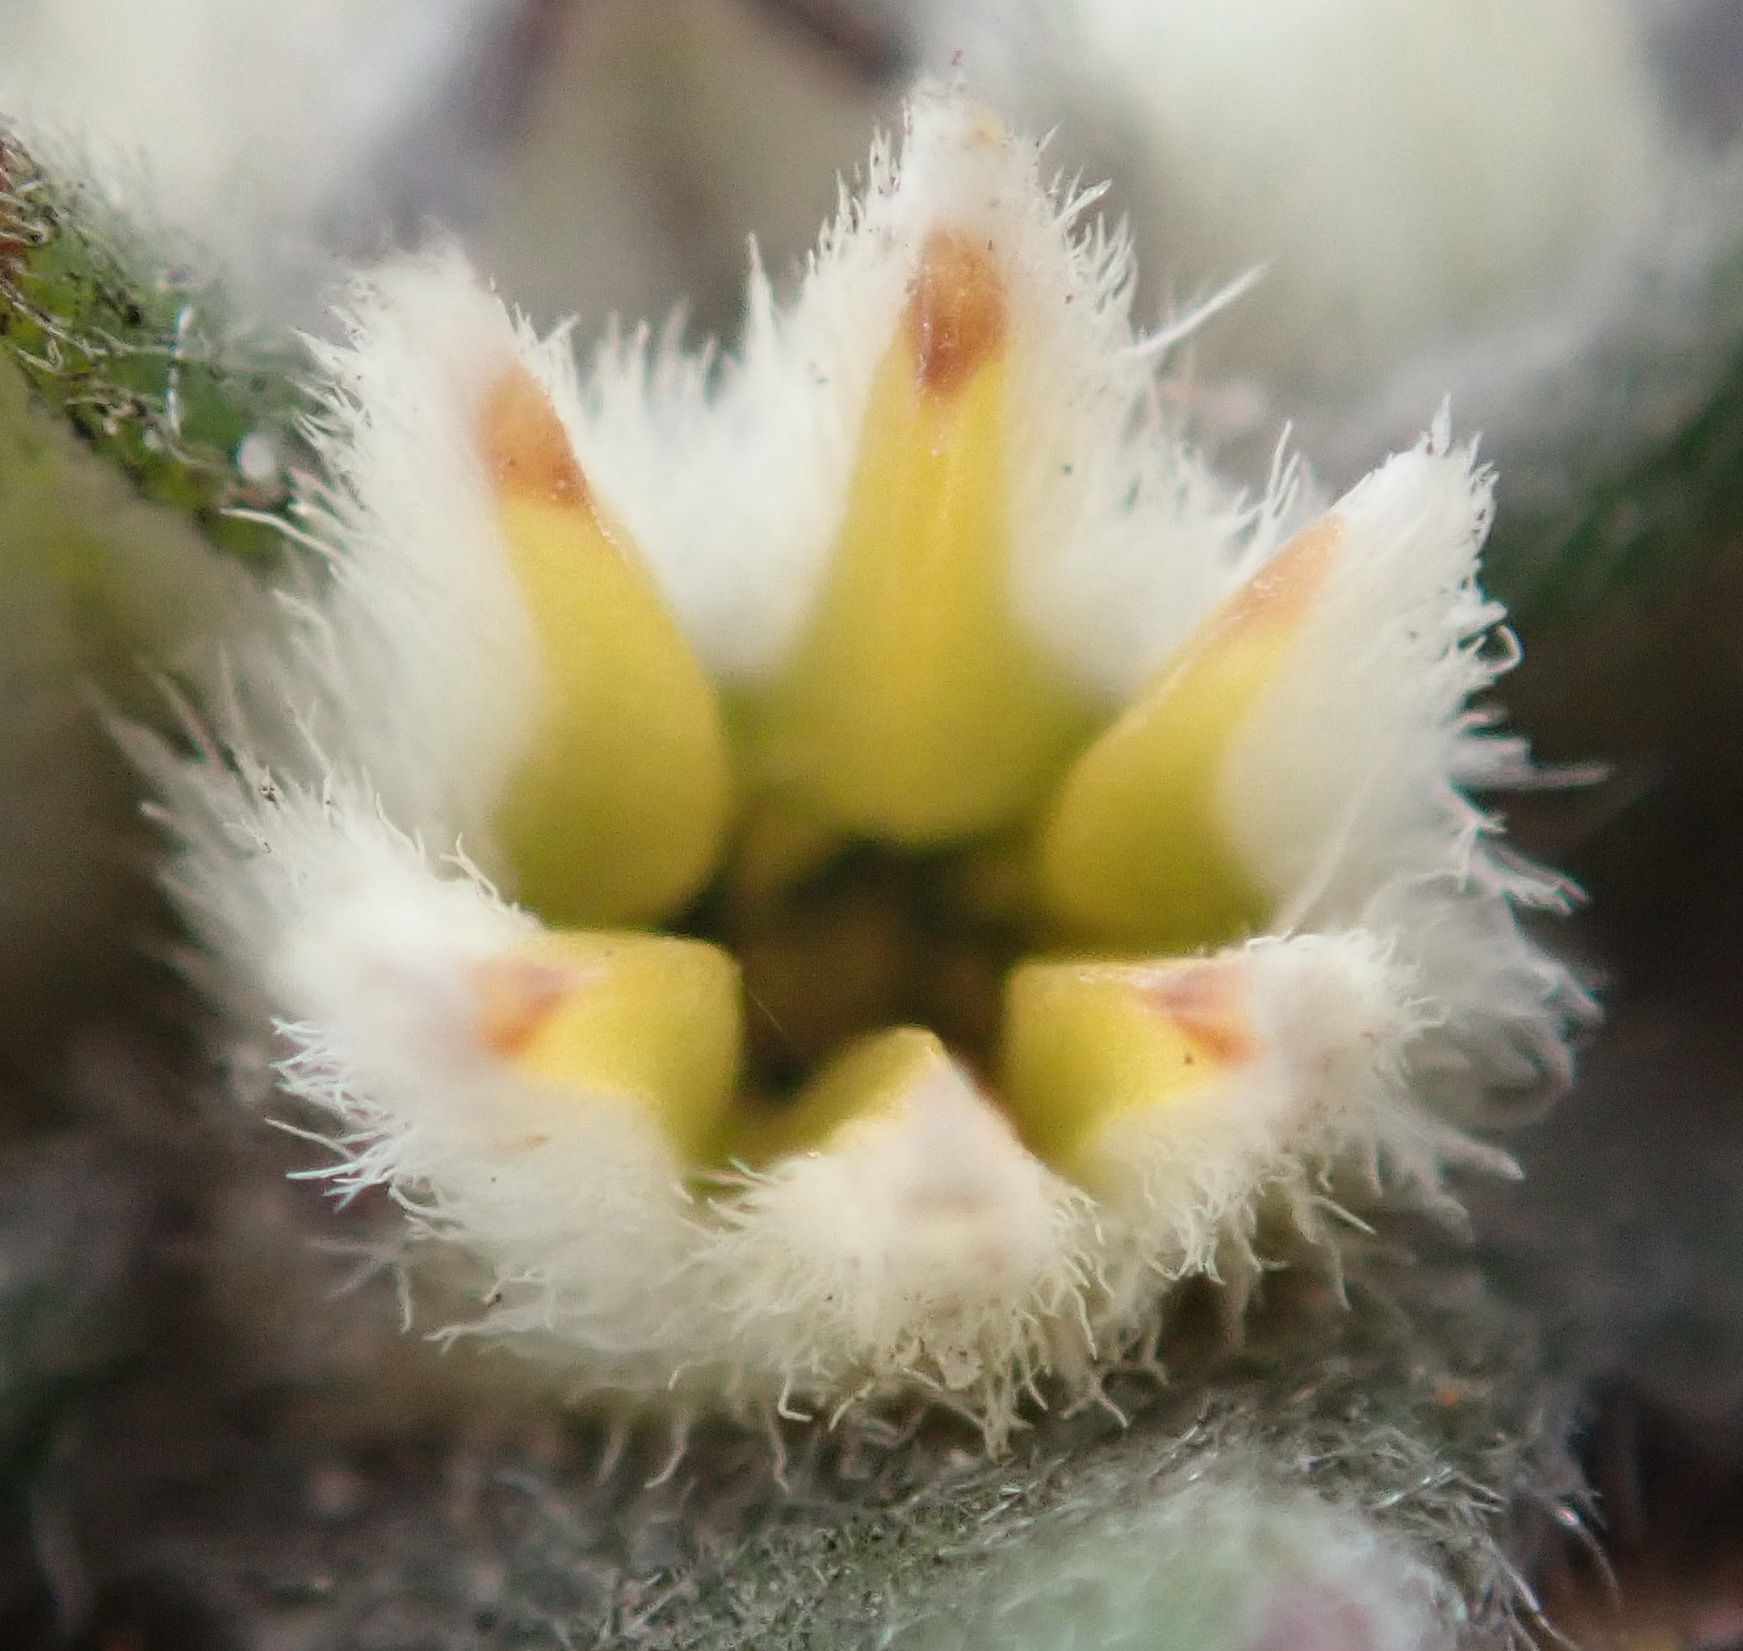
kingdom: Plantae
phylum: Tracheophyta
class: Magnoliopsida
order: Rosales
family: Rhamnaceae
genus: Phylica
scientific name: Phylica propinqua
